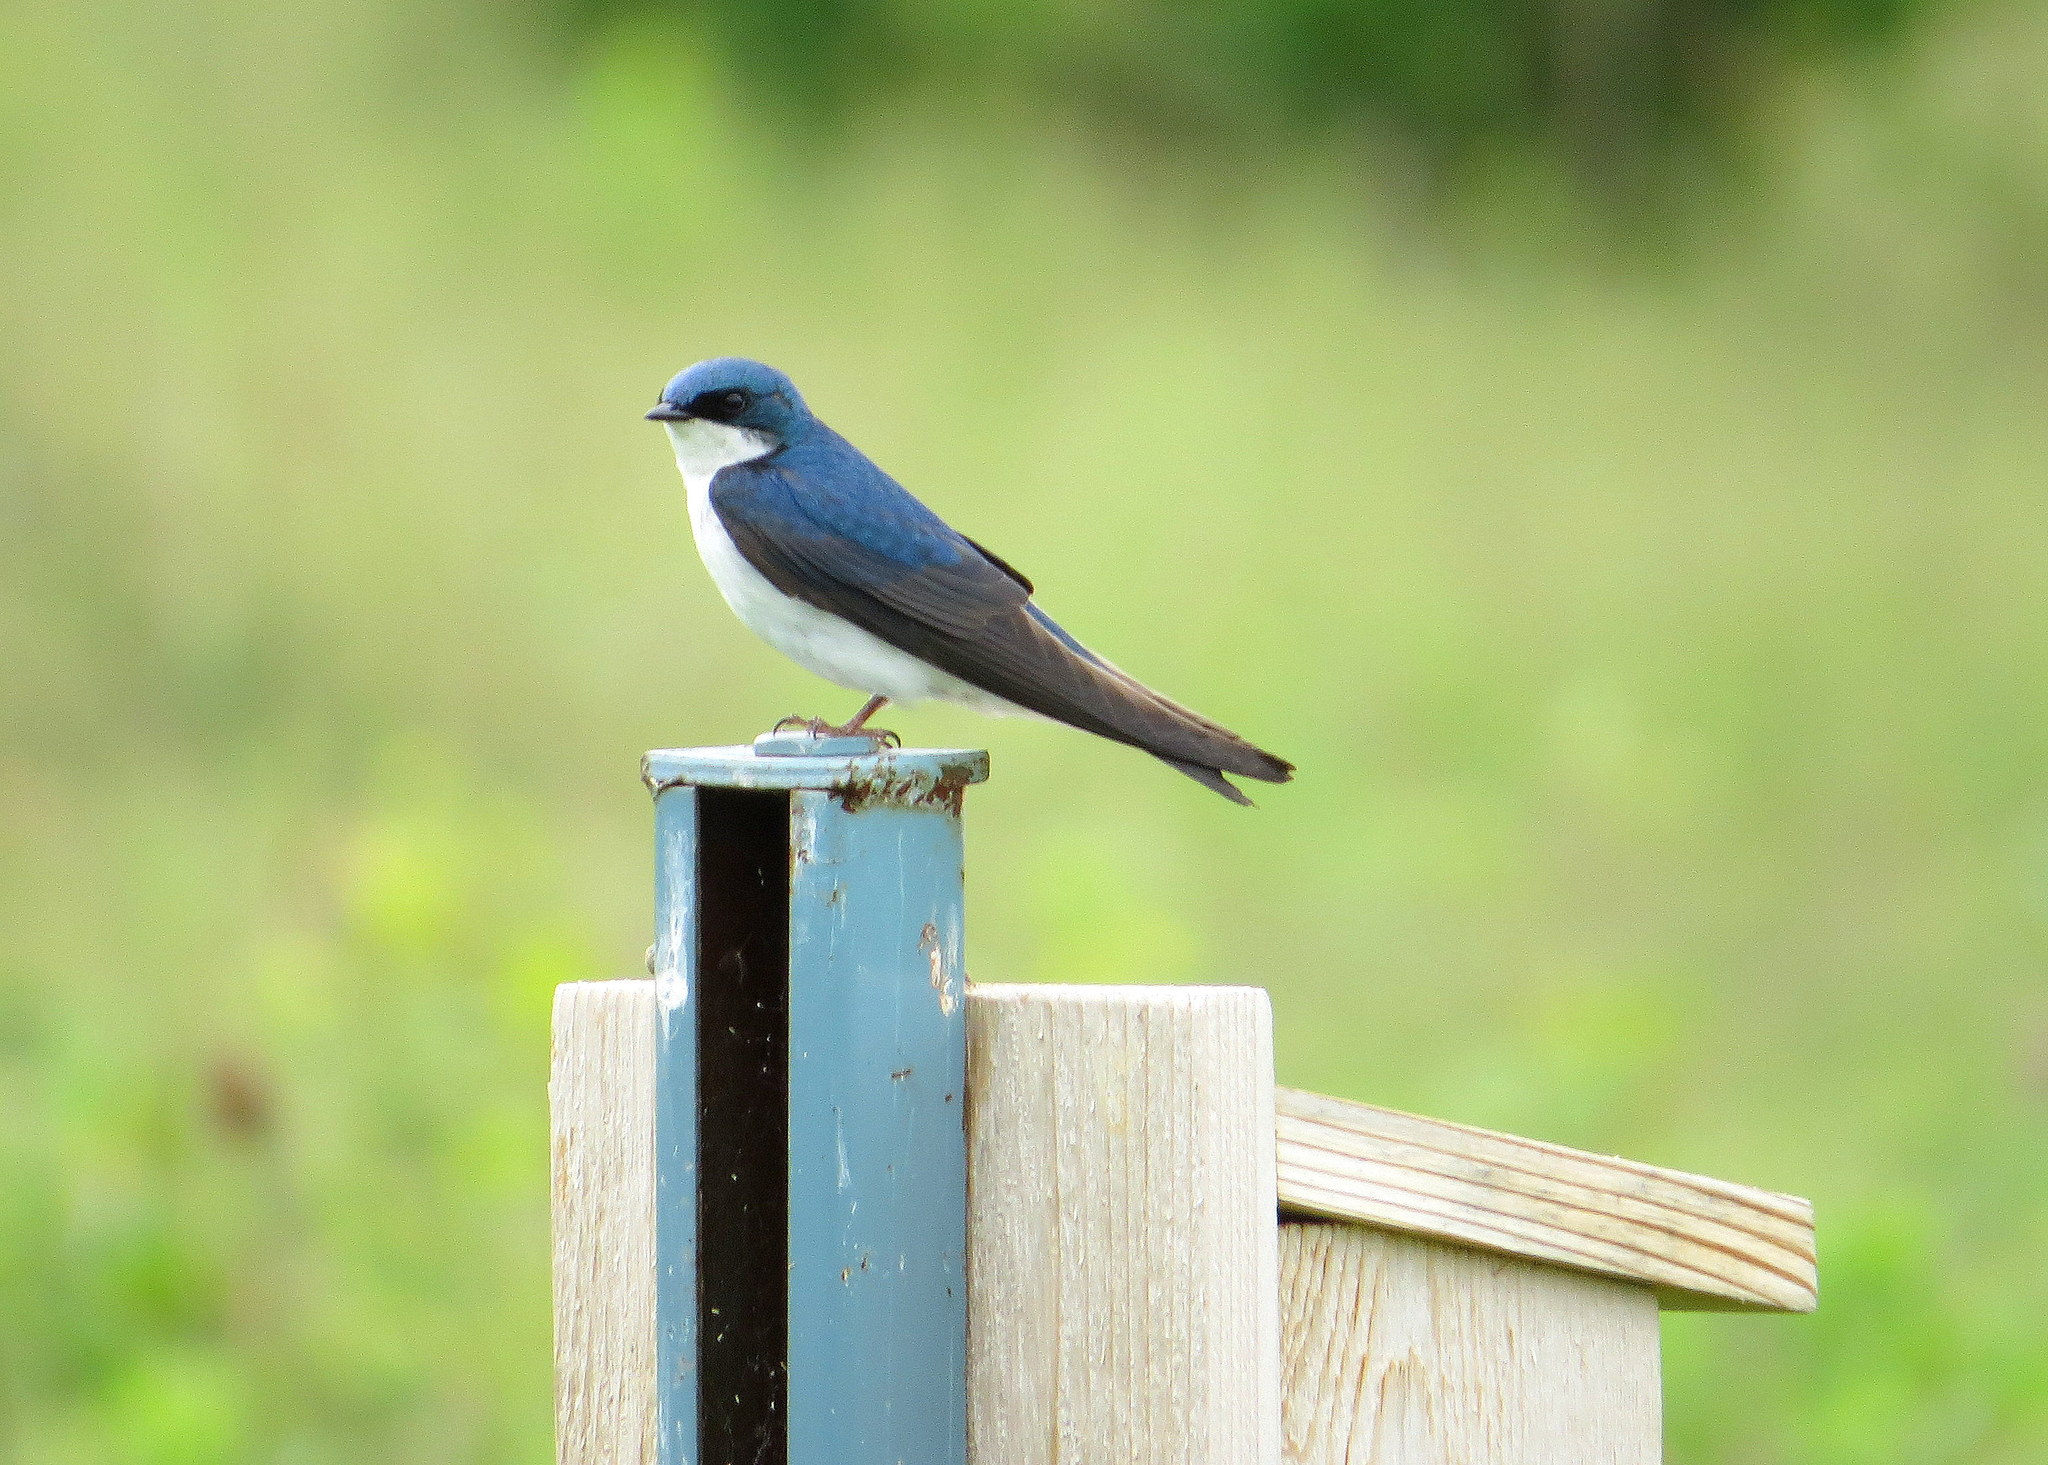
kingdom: Animalia
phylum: Chordata
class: Aves
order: Passeriformes
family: Hirundinidae
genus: Tachycineta
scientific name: Tachycineta bicolor
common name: Tree swallow
